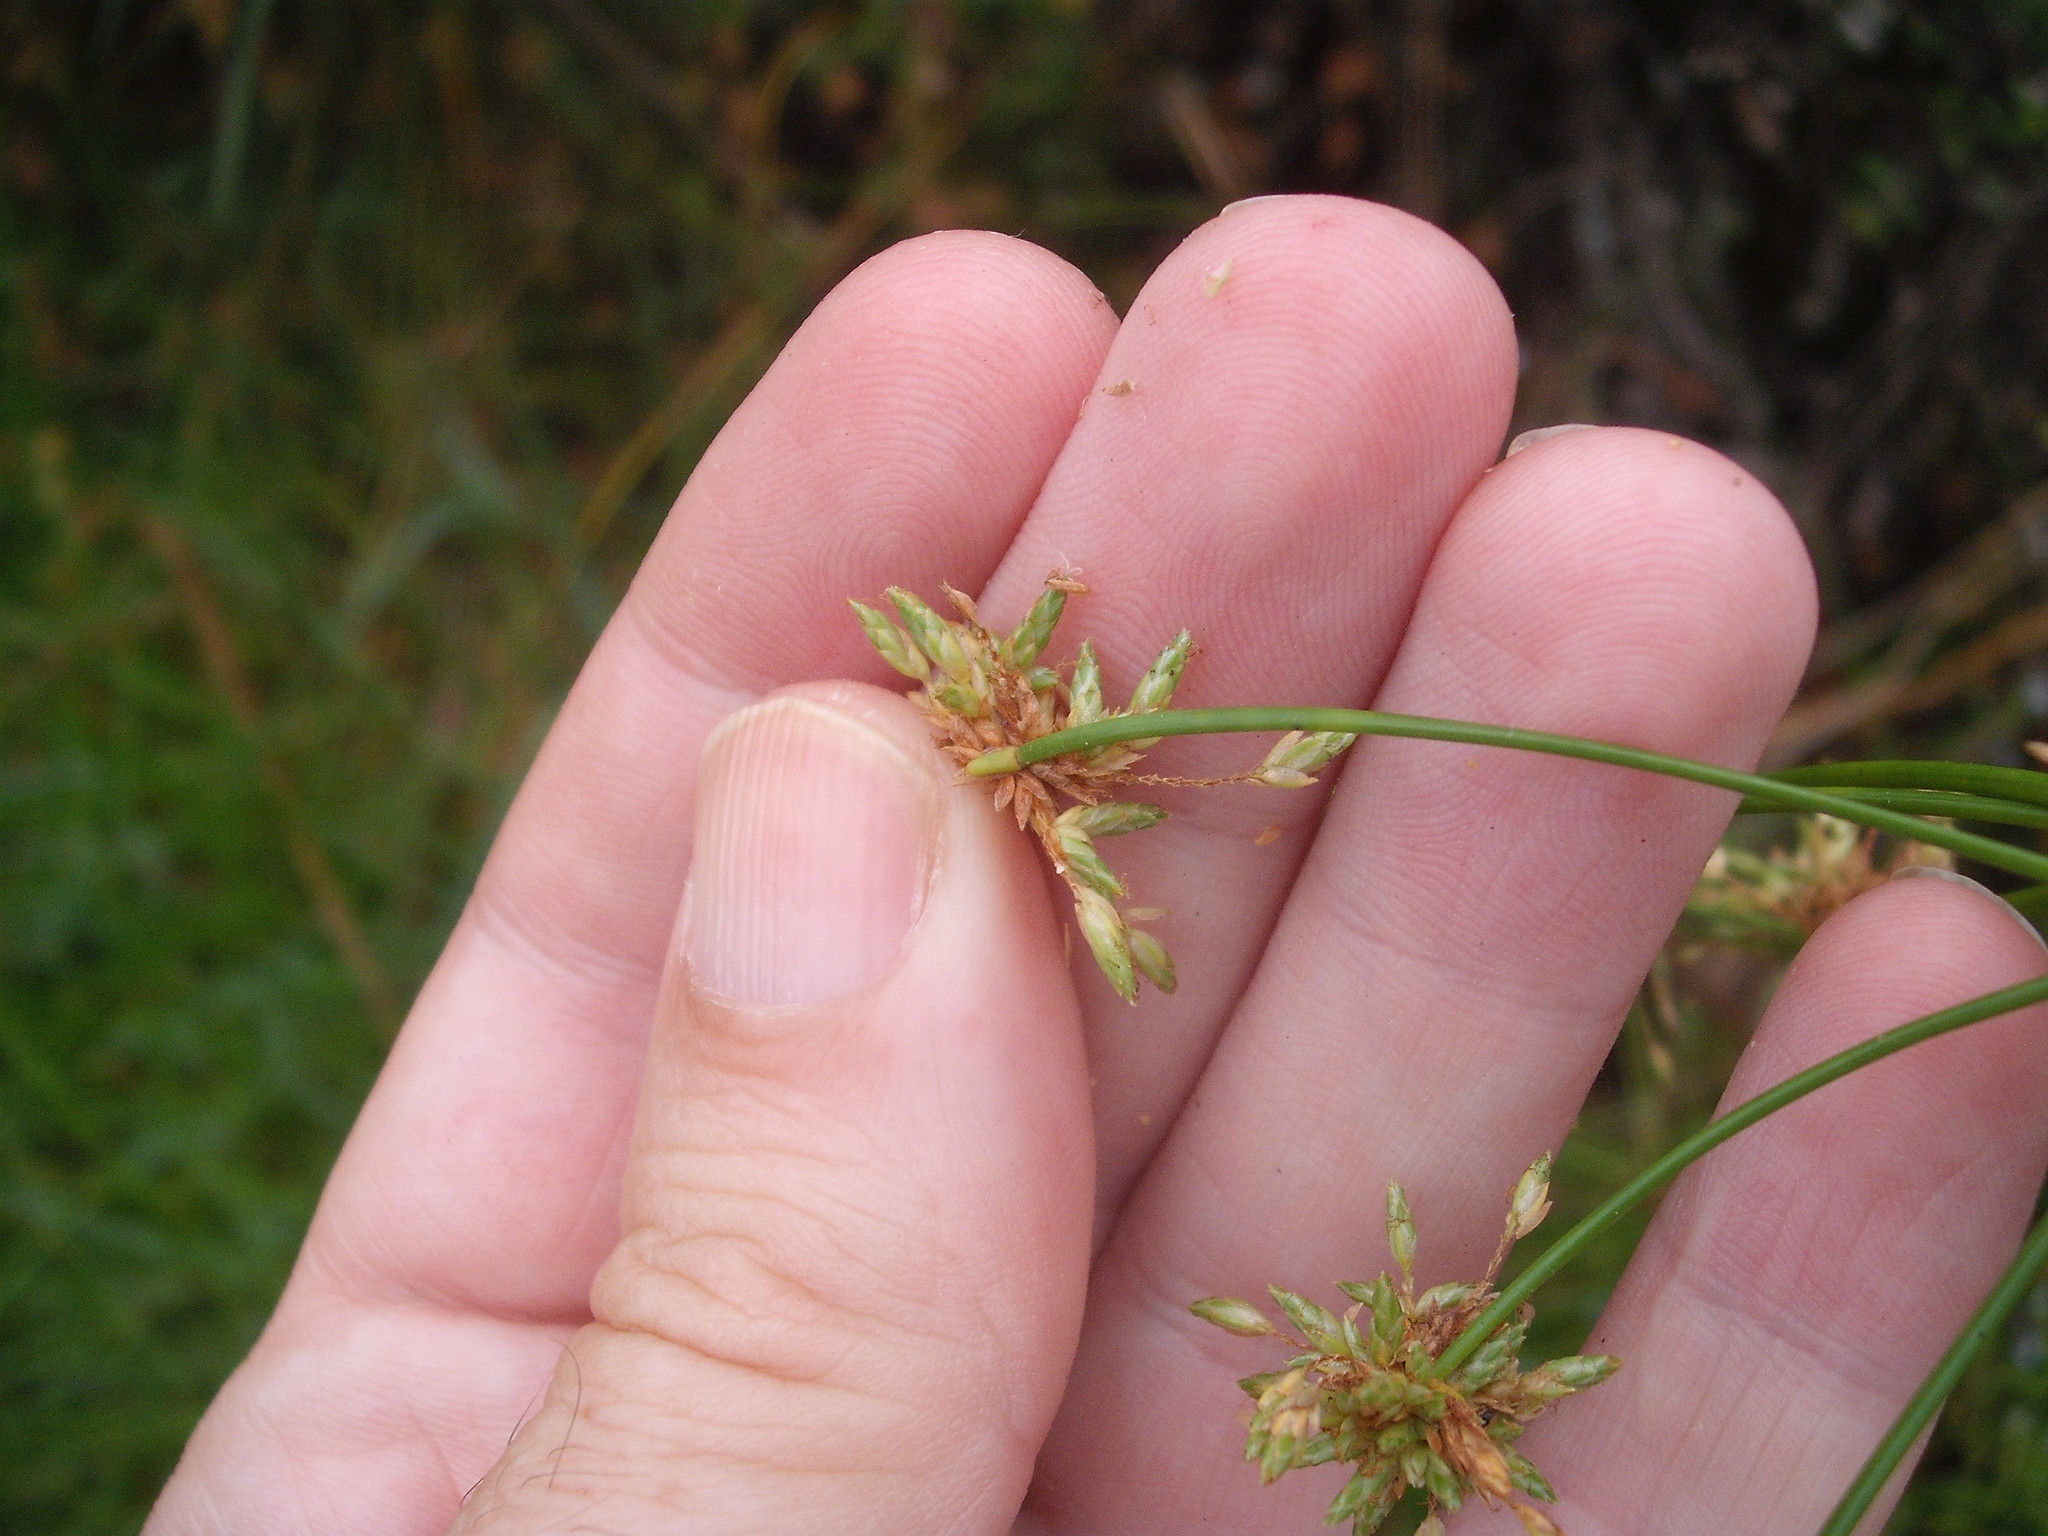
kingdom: Plantae
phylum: Tracheophyta
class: Liliopsida
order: Poales
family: Cyperaceae
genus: Isolepis
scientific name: Isolepis prolifera
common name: Proliferating bulrush
